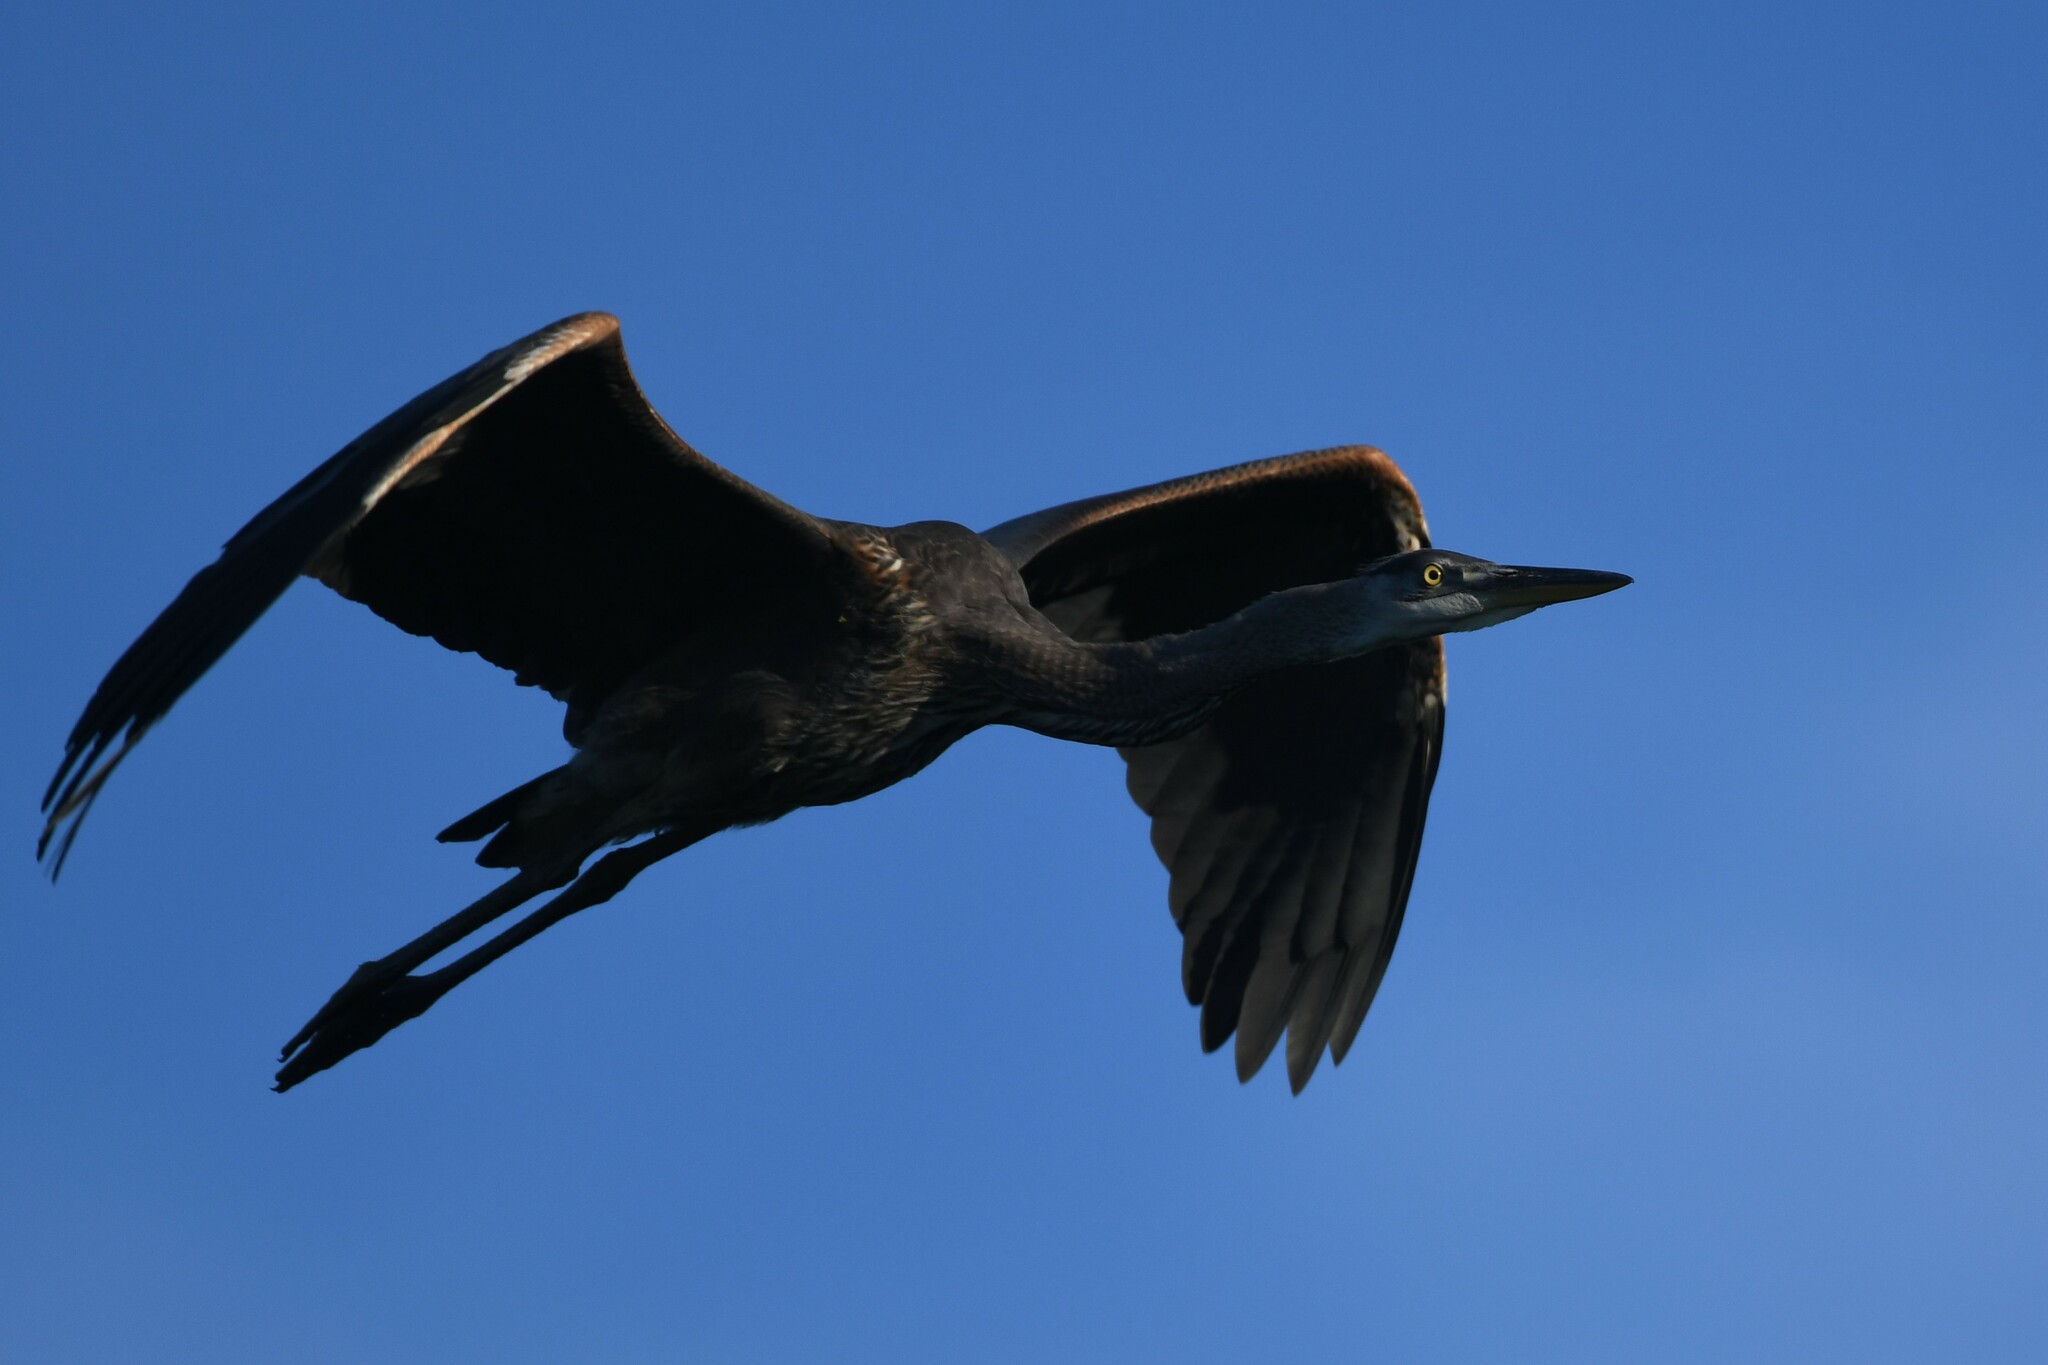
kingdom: Animalia
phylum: Chordata
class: Aves
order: Pelecaniformes
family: Ardeidae
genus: Ardea
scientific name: Ardea herodias
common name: Great blue heron
